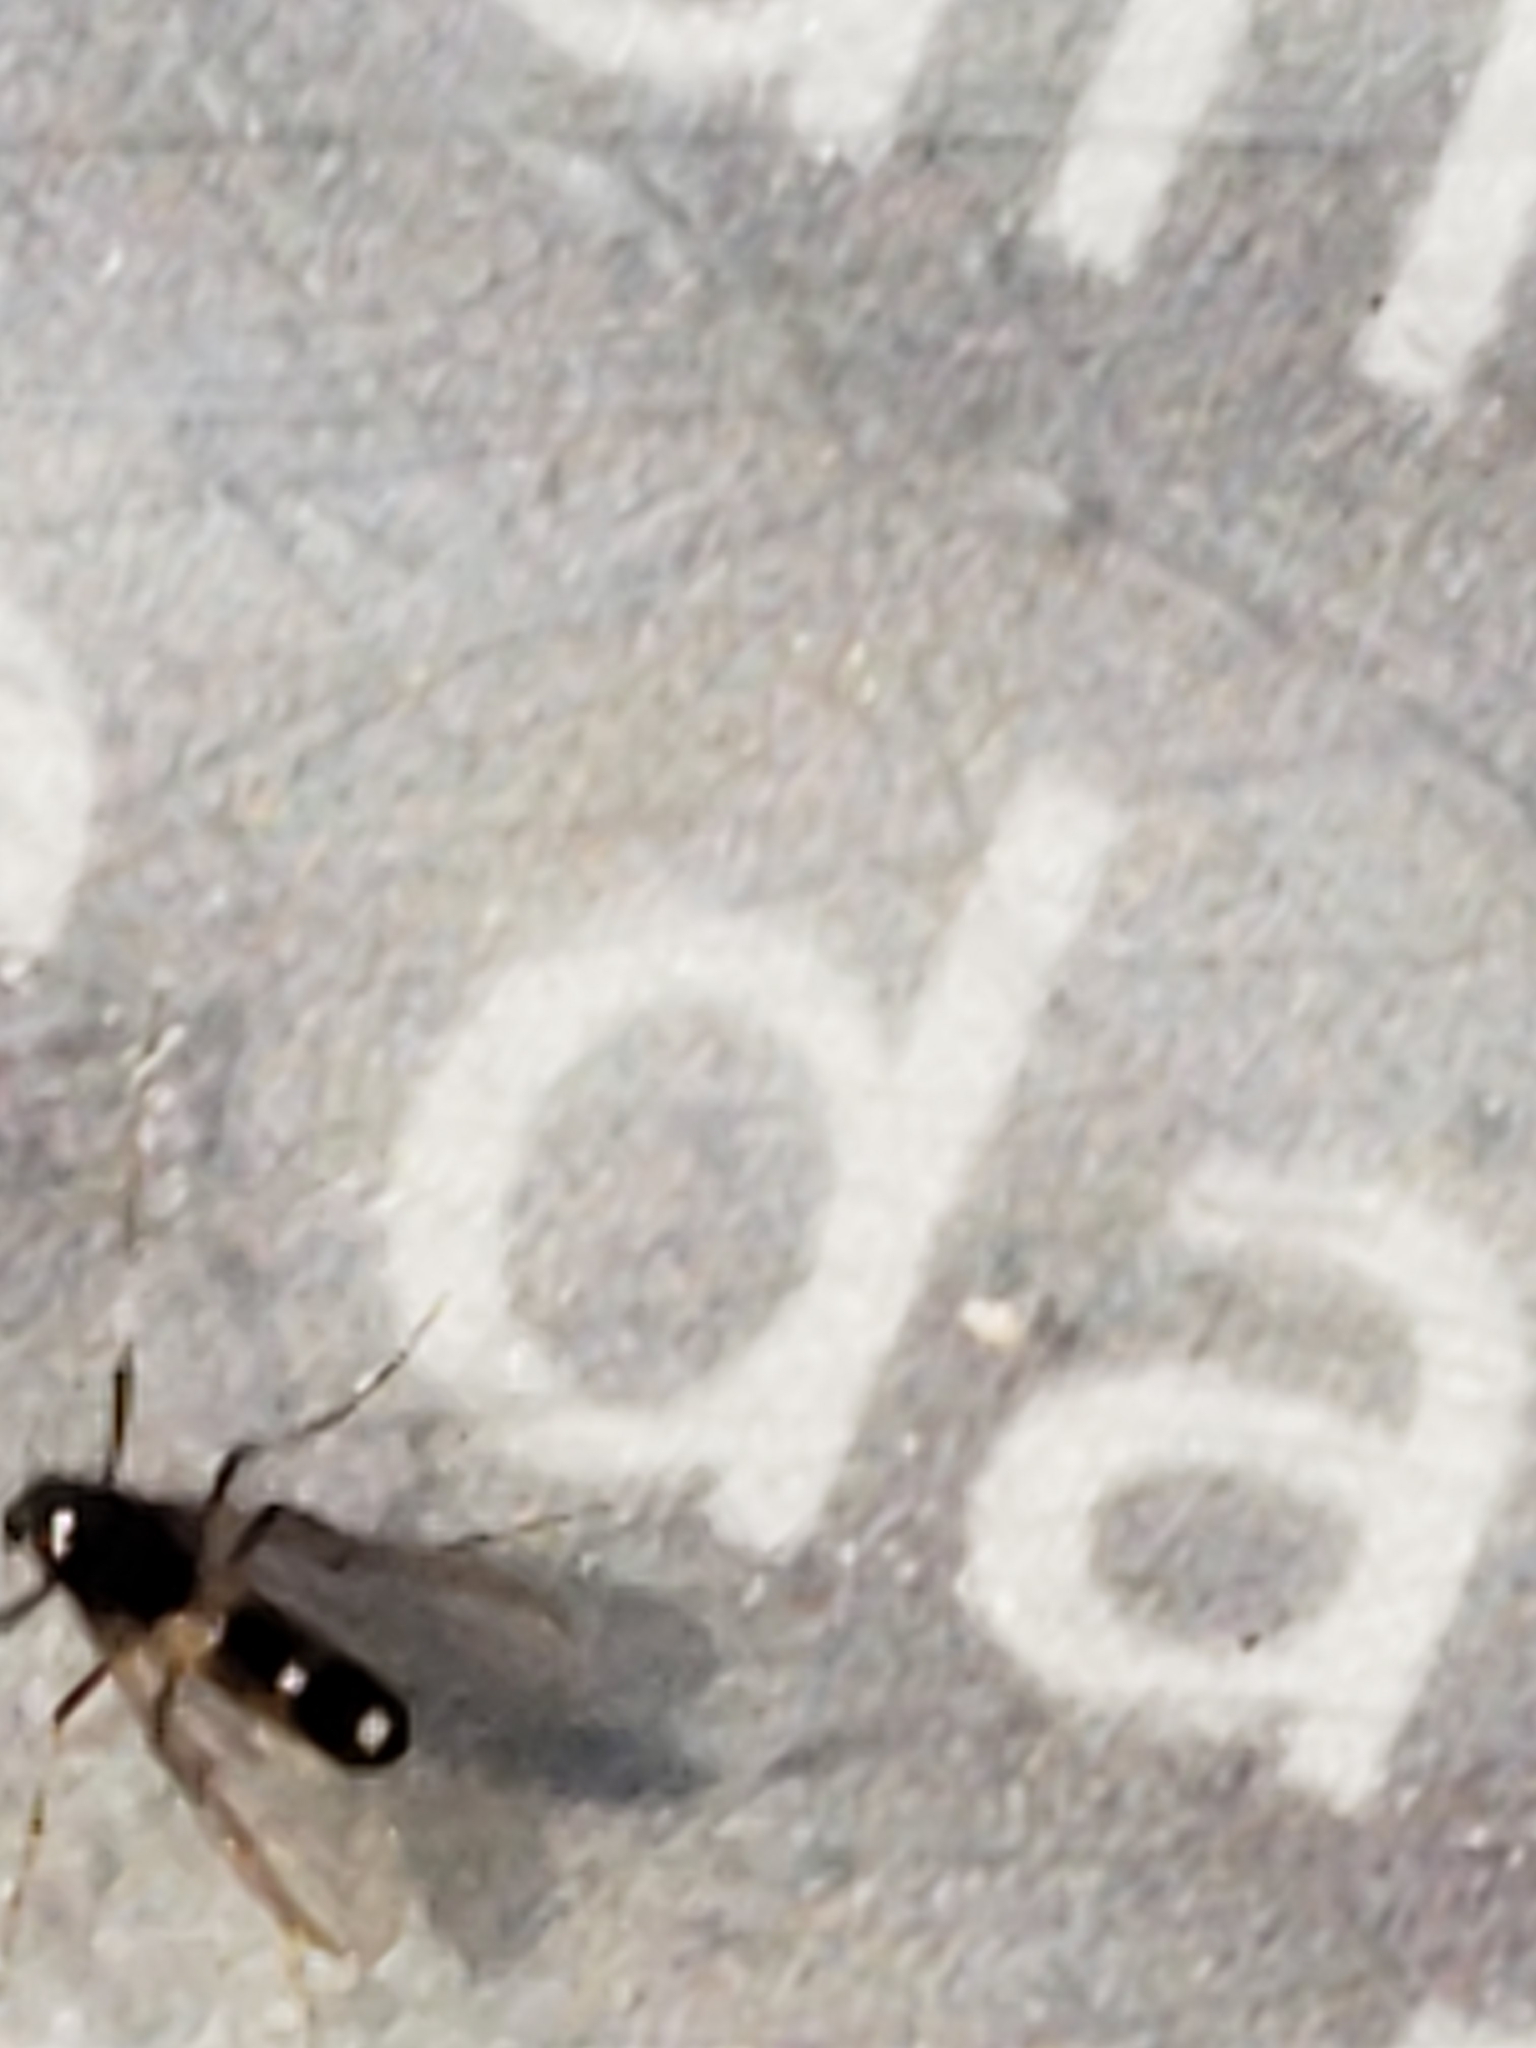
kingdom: Animalia
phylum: Arthropoda
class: Insecta
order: Diptera
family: Chironomidae
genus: Cricotopus
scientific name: Cricotopus bicinctus
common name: Midge
